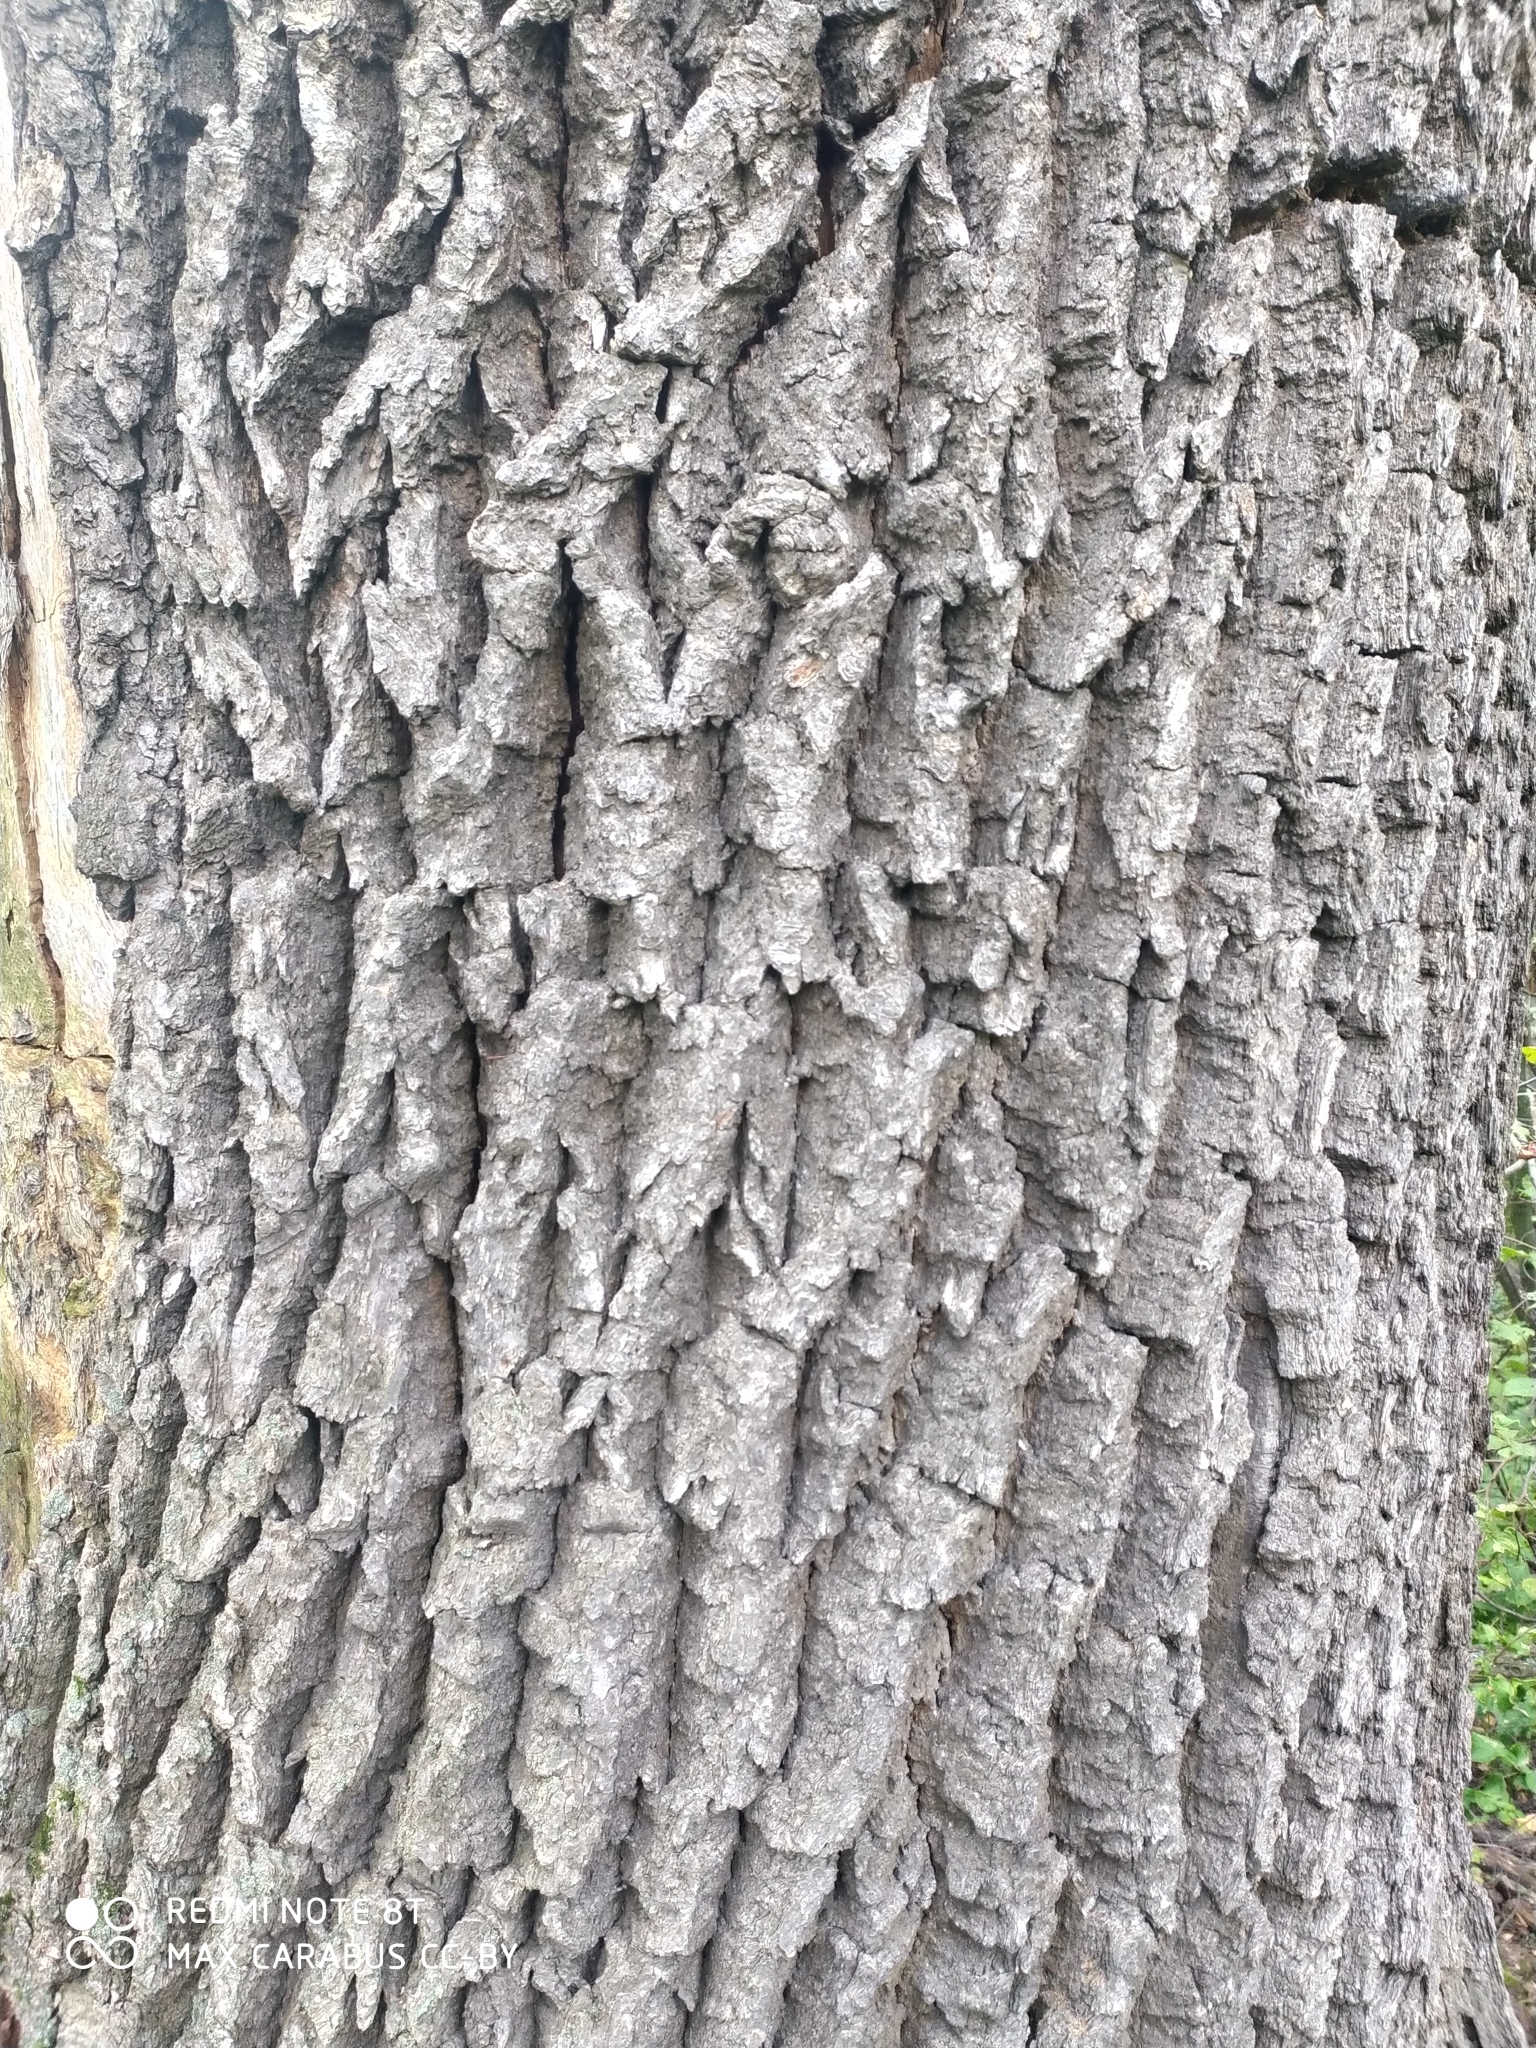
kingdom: Plantae
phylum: Tracheophyta
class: Magnoliopsida
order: Fagales
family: Fagaceae
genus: Quercus
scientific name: Quercus robur
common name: Pedunculate oak
